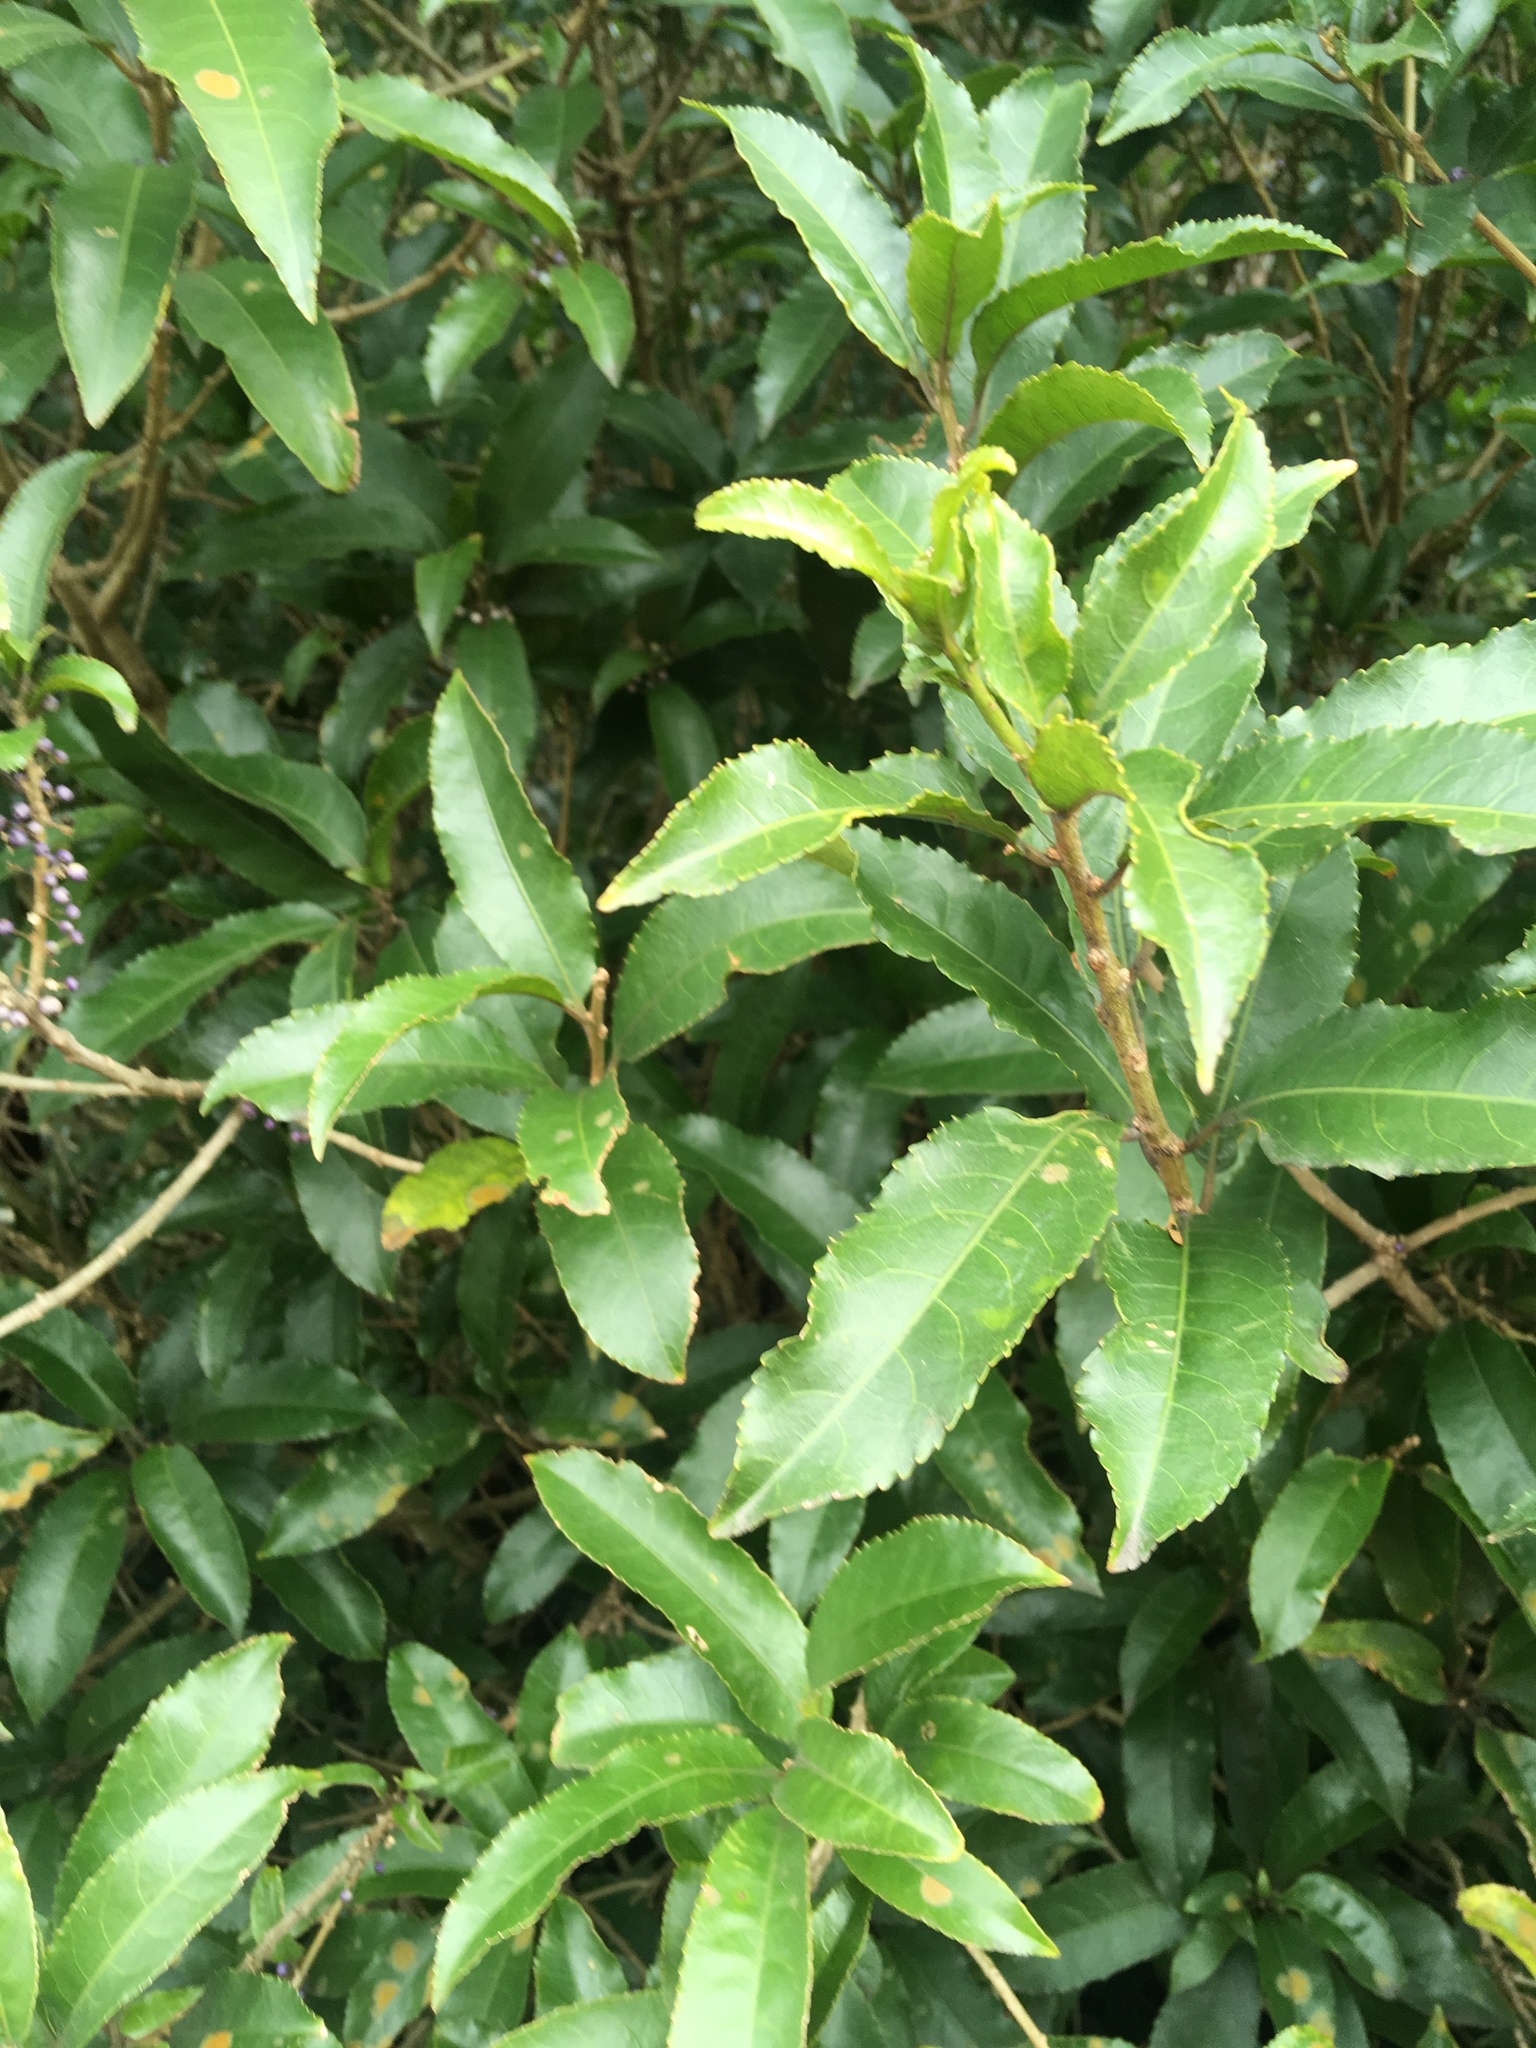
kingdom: Plantae
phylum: Tracheophyta
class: Magnoliopsida
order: Malpighiales
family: Violaceae
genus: Melicytus
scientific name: Melicytus ramiflorus
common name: Mahoe
